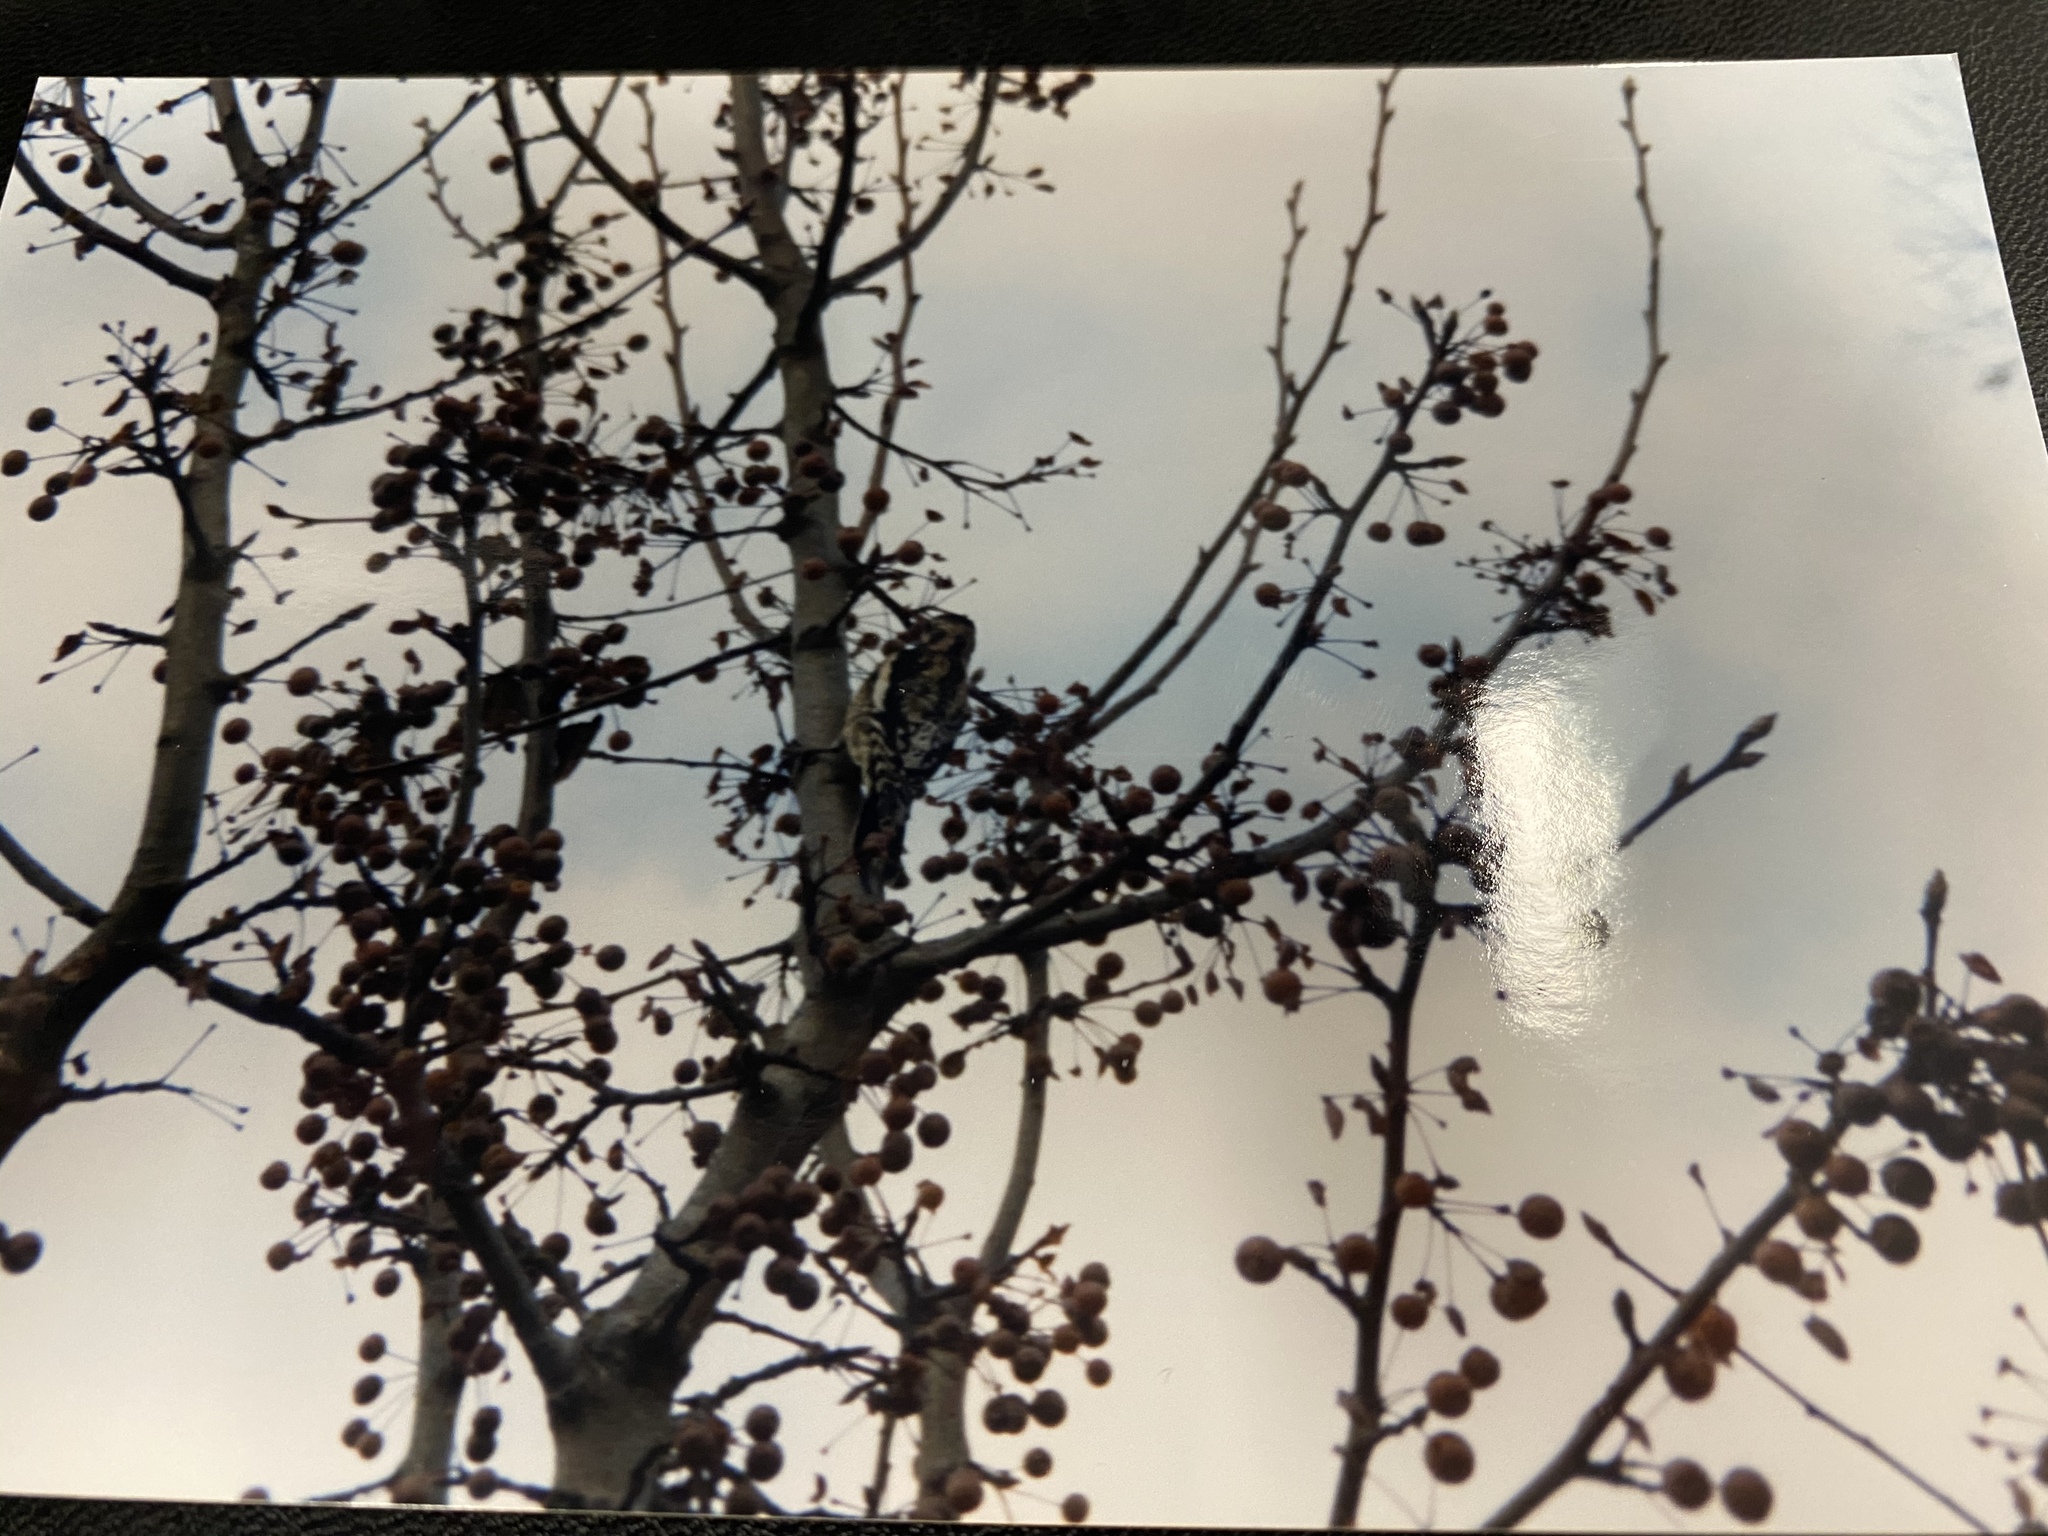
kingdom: Animalia
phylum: Chordata
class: Aves
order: Piciformes
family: Picidae
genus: Sphyrapicus
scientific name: Sphyrapicus varius
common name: Yellow-bellied sapsucker
